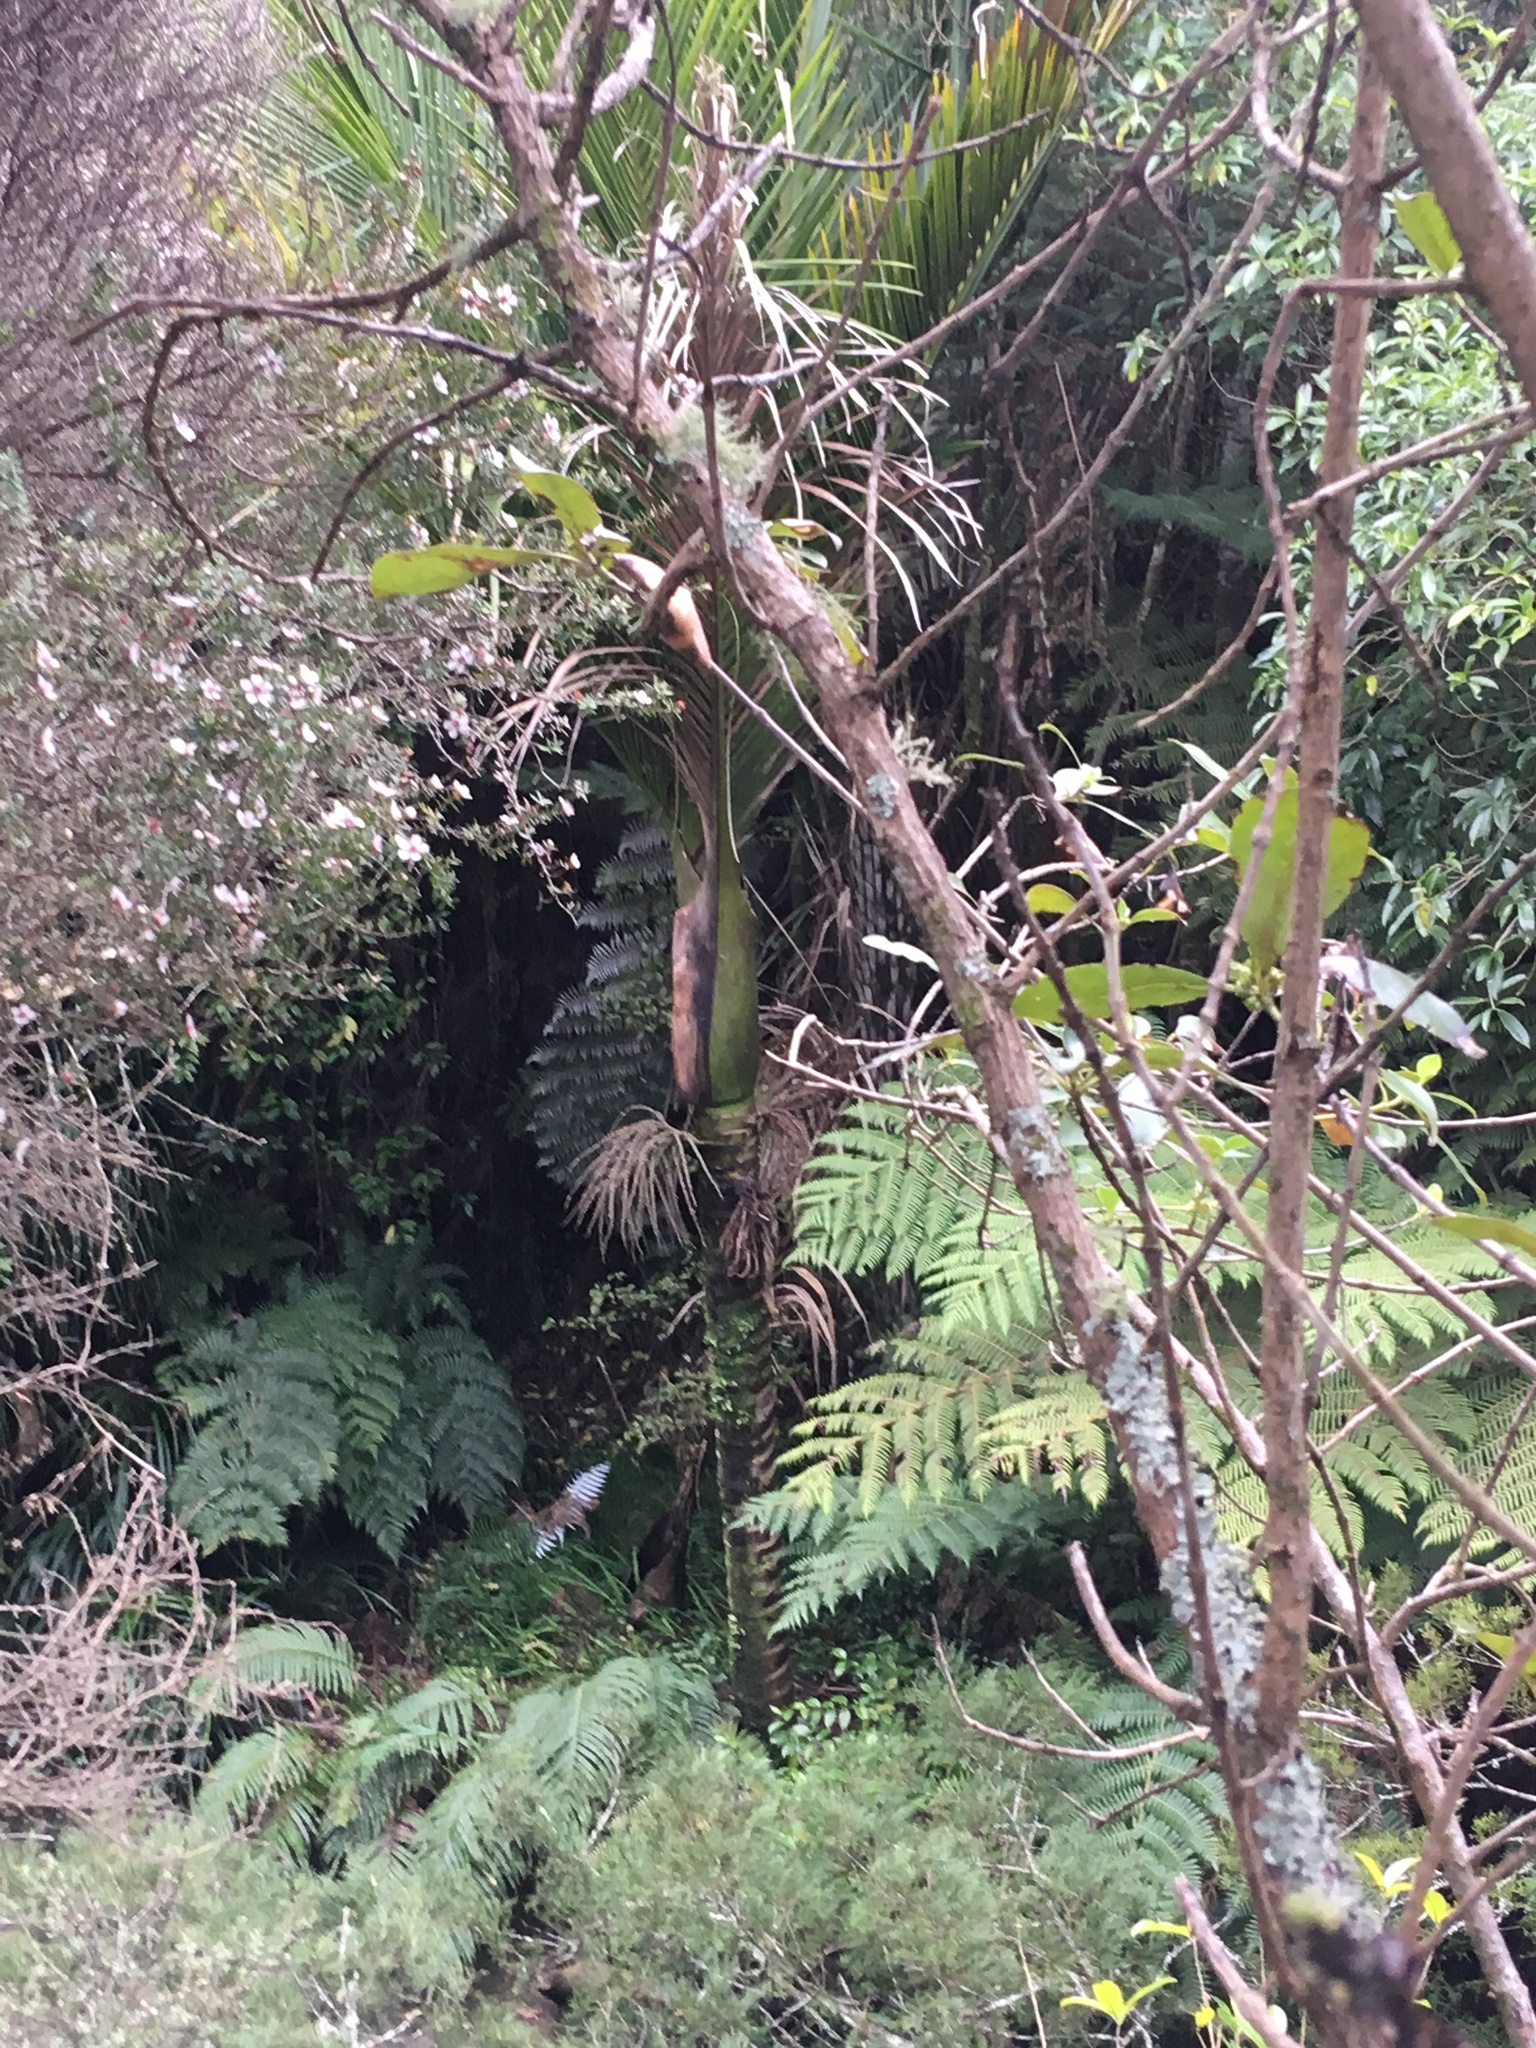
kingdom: Plantae
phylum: Tracheophyta
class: Liliopsida
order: Arecales
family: Arecaceae
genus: Rhopalostylis
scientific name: Rhopalostylis sapida
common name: Feather-duster palm
